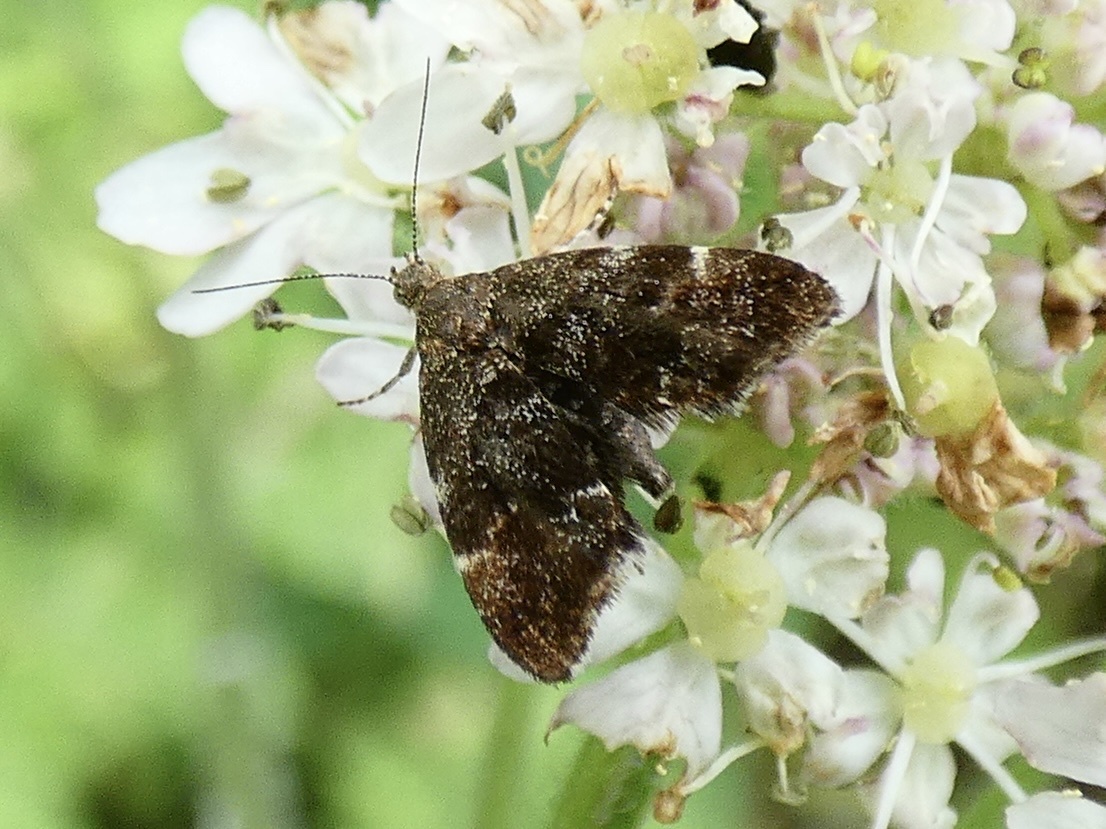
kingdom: Animalia
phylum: Arthropoda
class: Insecta
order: Lepidoptera
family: Choreutidae
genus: Anthophila
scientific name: Anthophila fabriciana
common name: Nettle-tap
